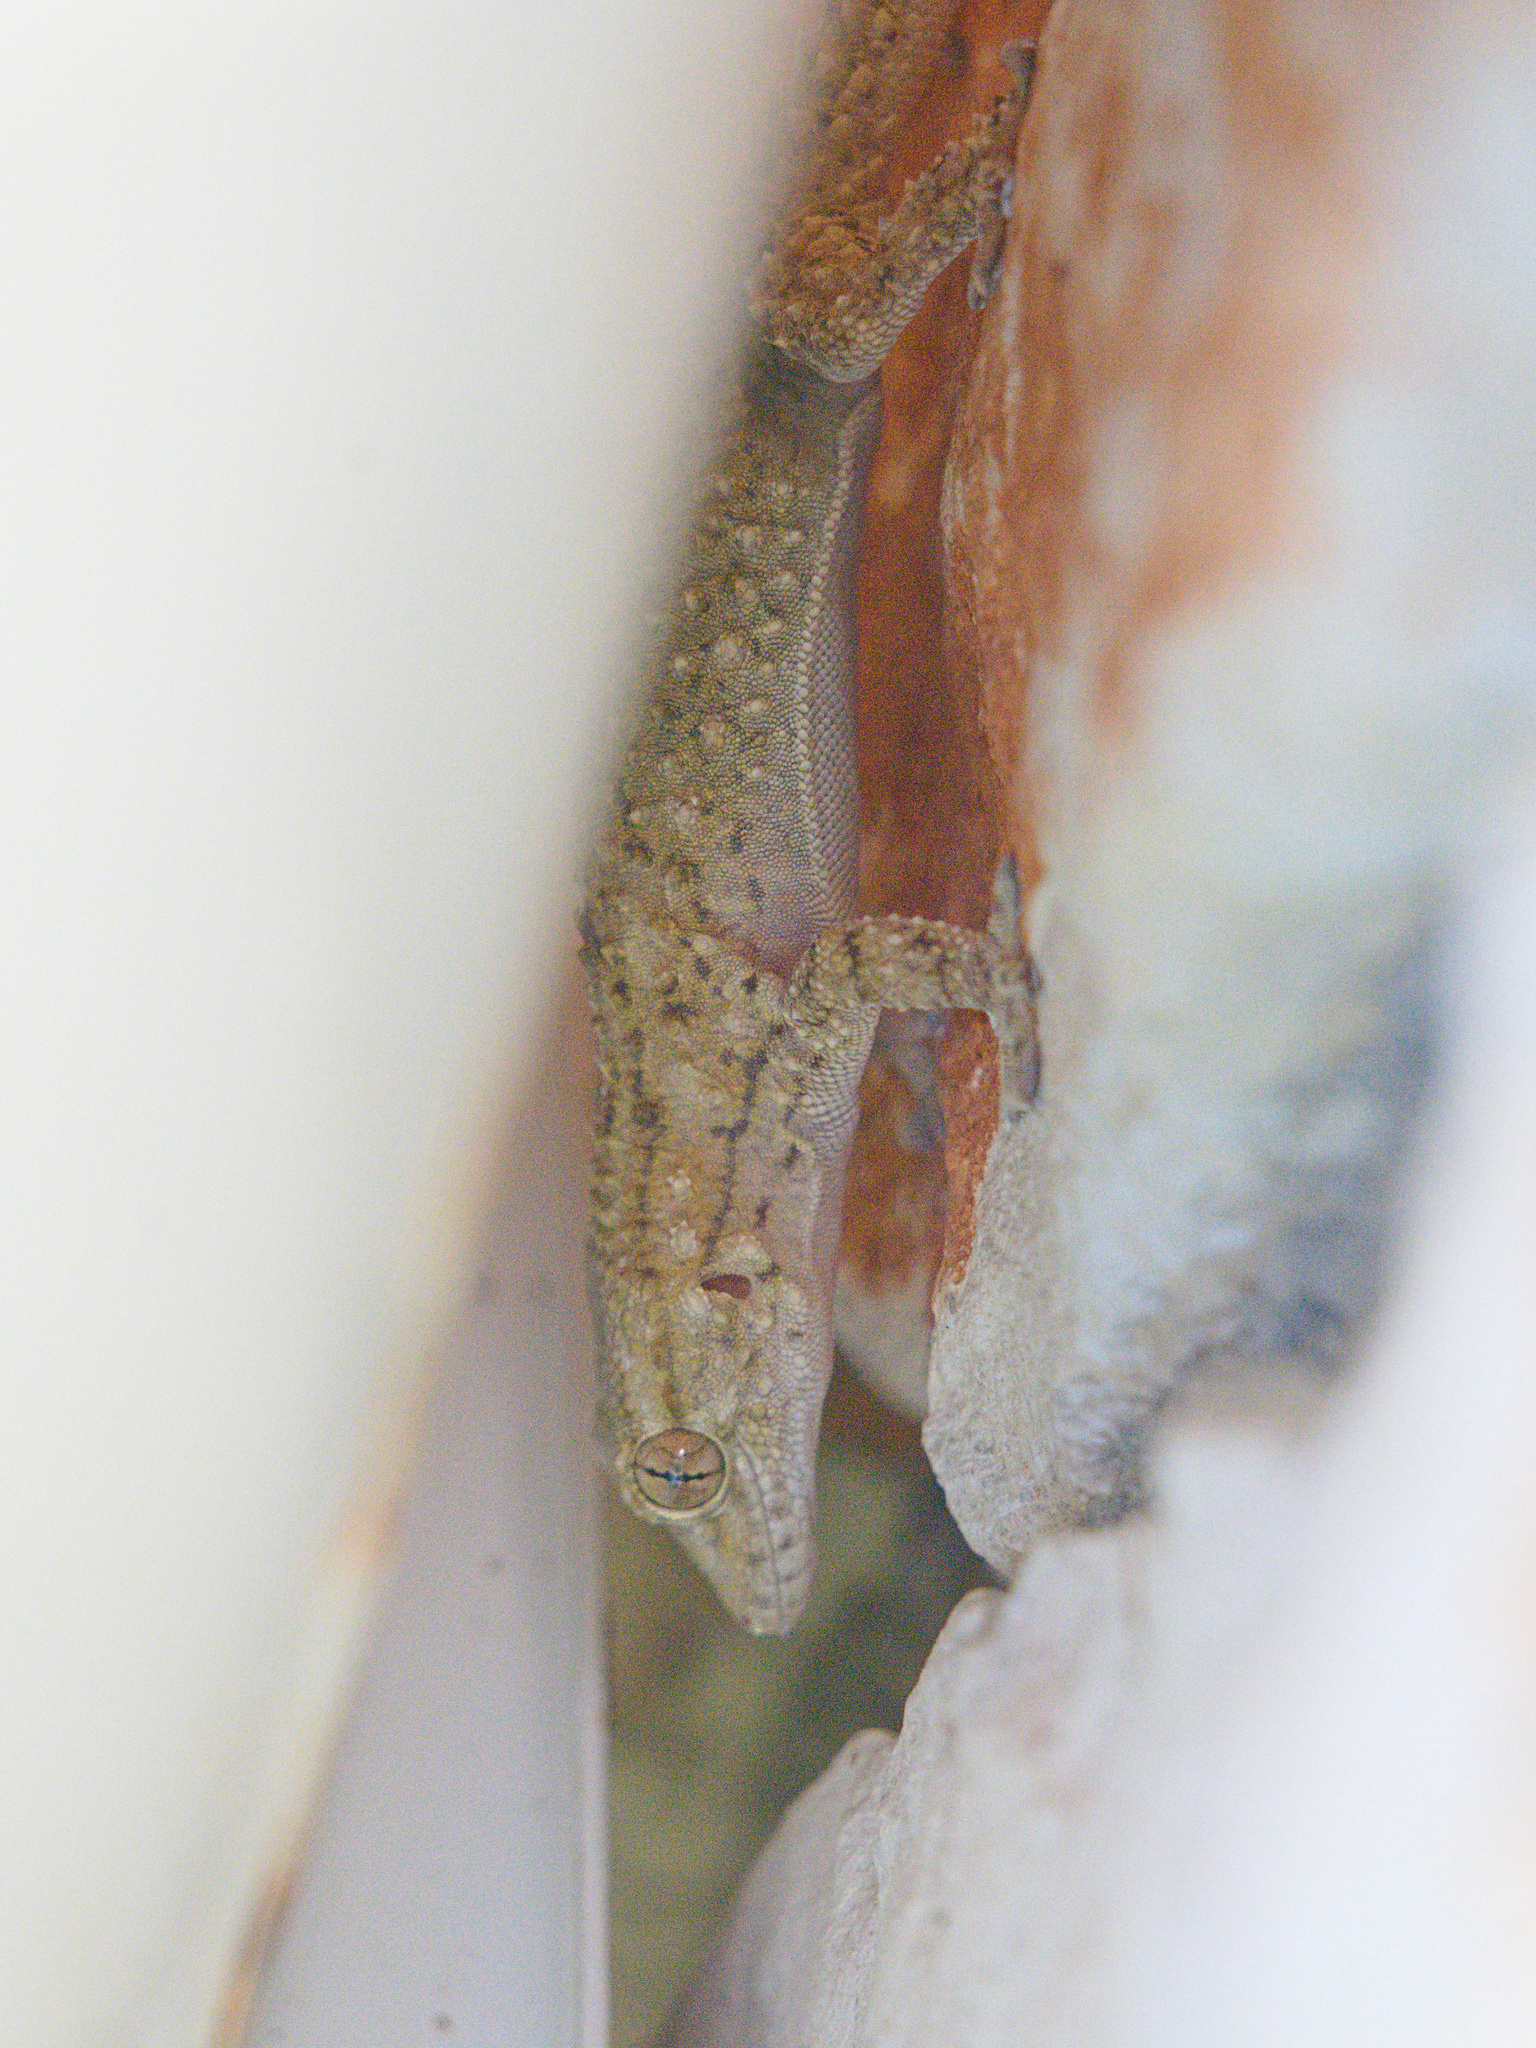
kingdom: Animalia
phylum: Chordata
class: Squamata
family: Phyllodactylidae
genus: Tarentola
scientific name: Tarentola mauritanica
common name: Moorish gecko
